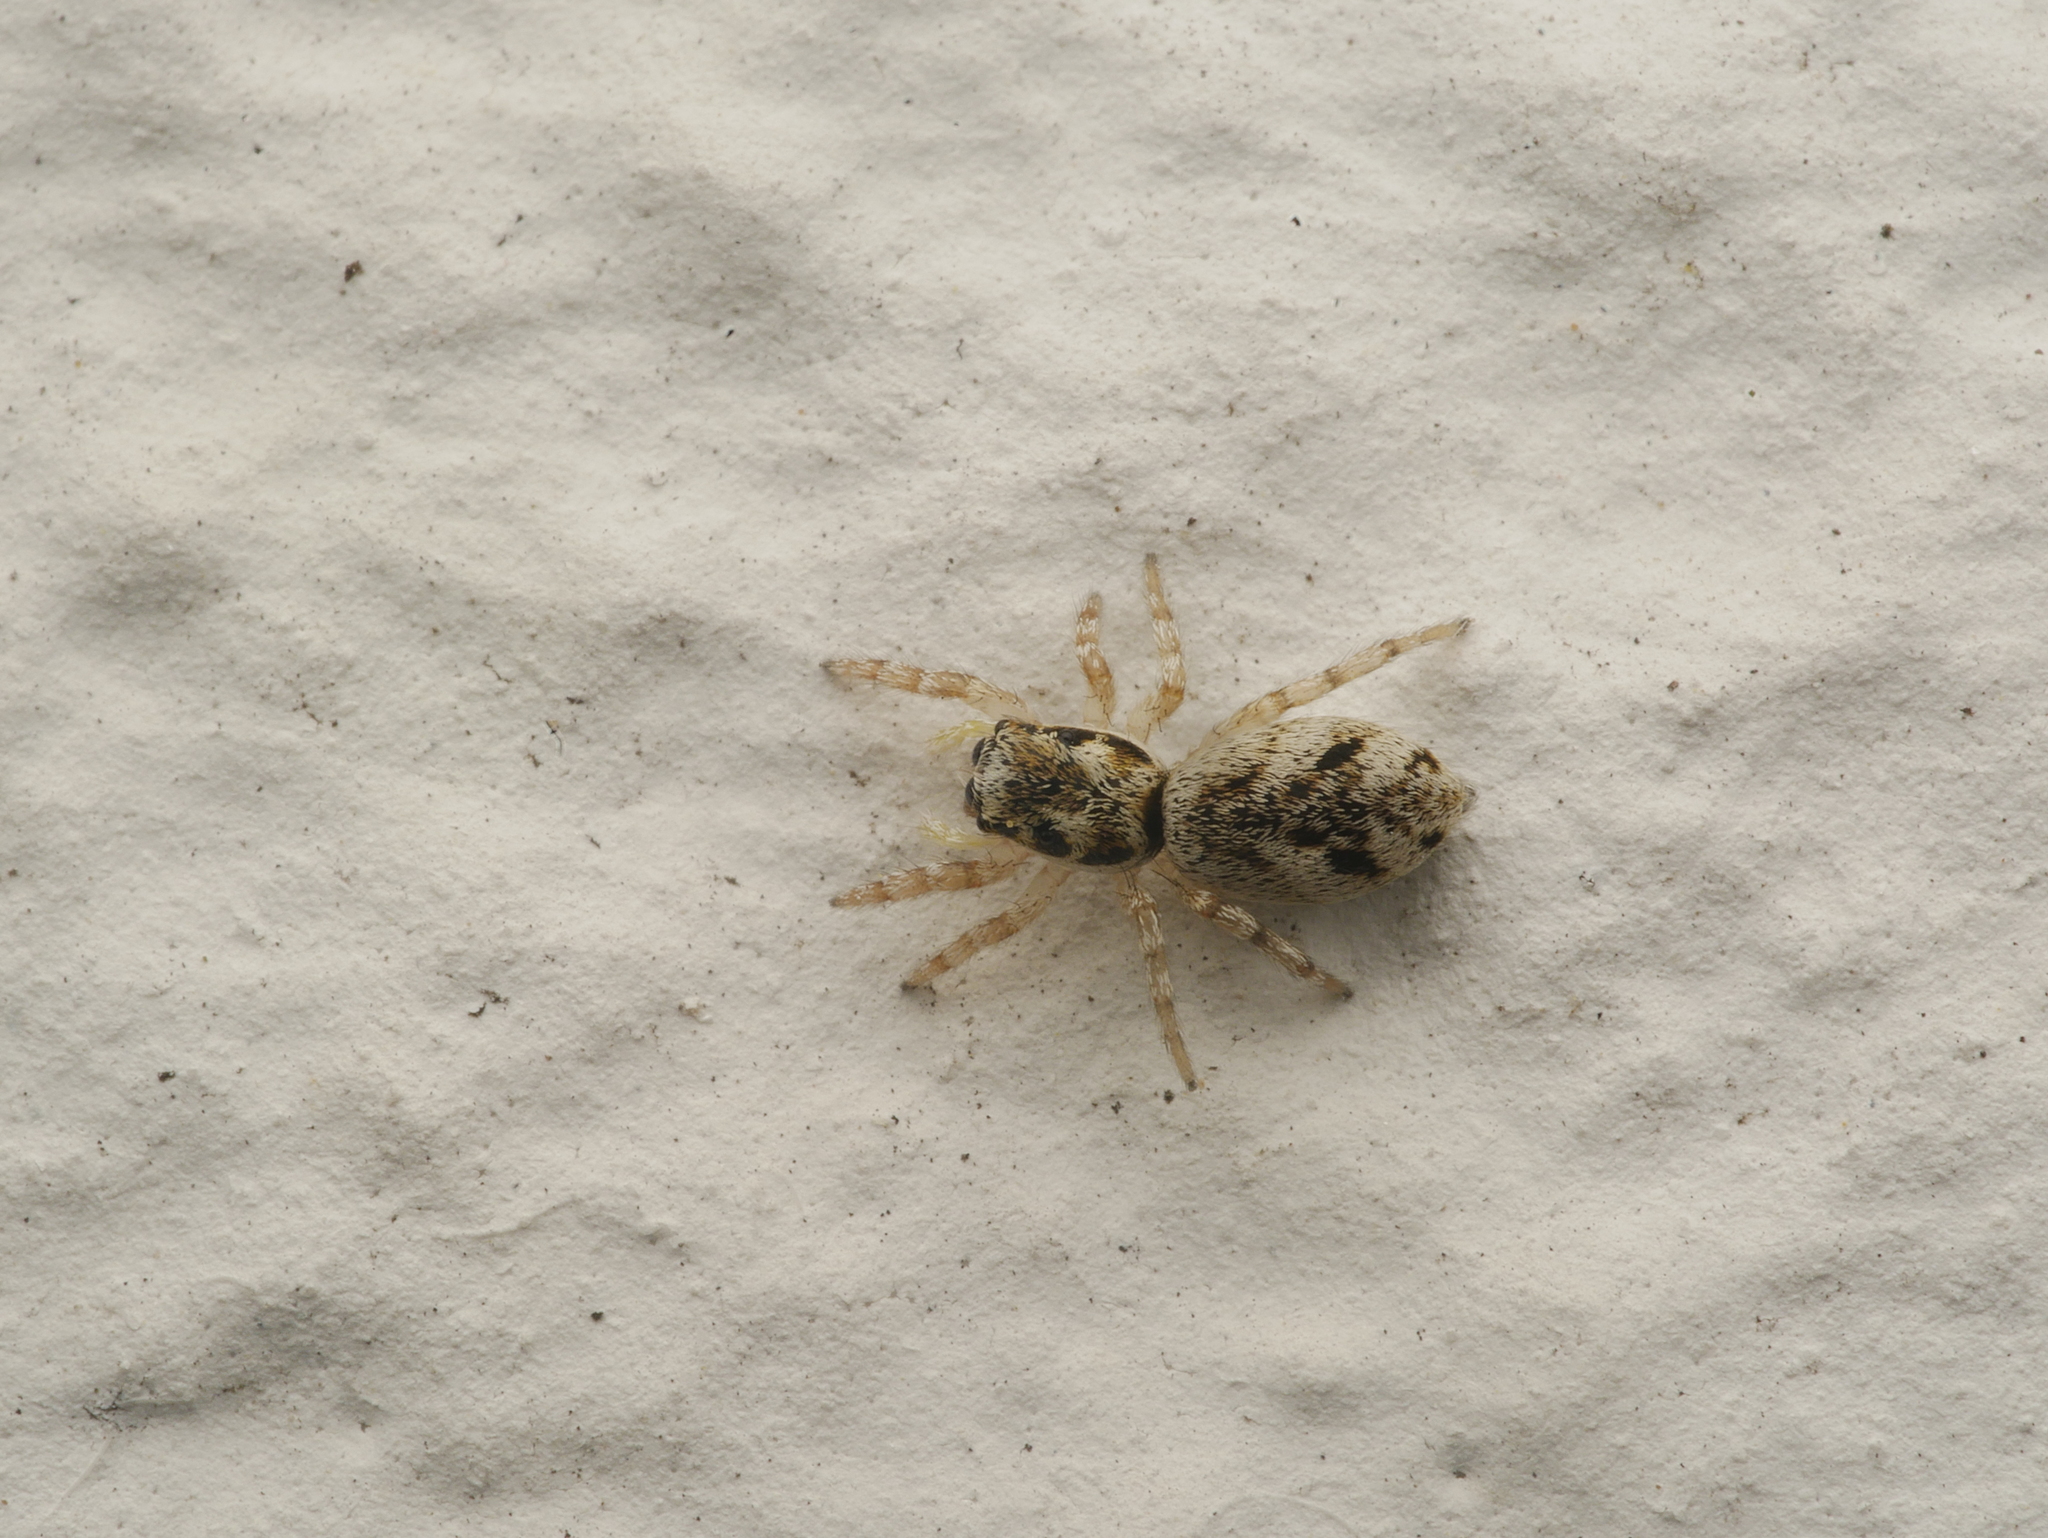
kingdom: Animalia
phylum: Arthropoda
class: Arachnida
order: Araneae
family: Salticidae
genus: Salticus
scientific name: Salticus scenicus
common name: Zebra jumper
